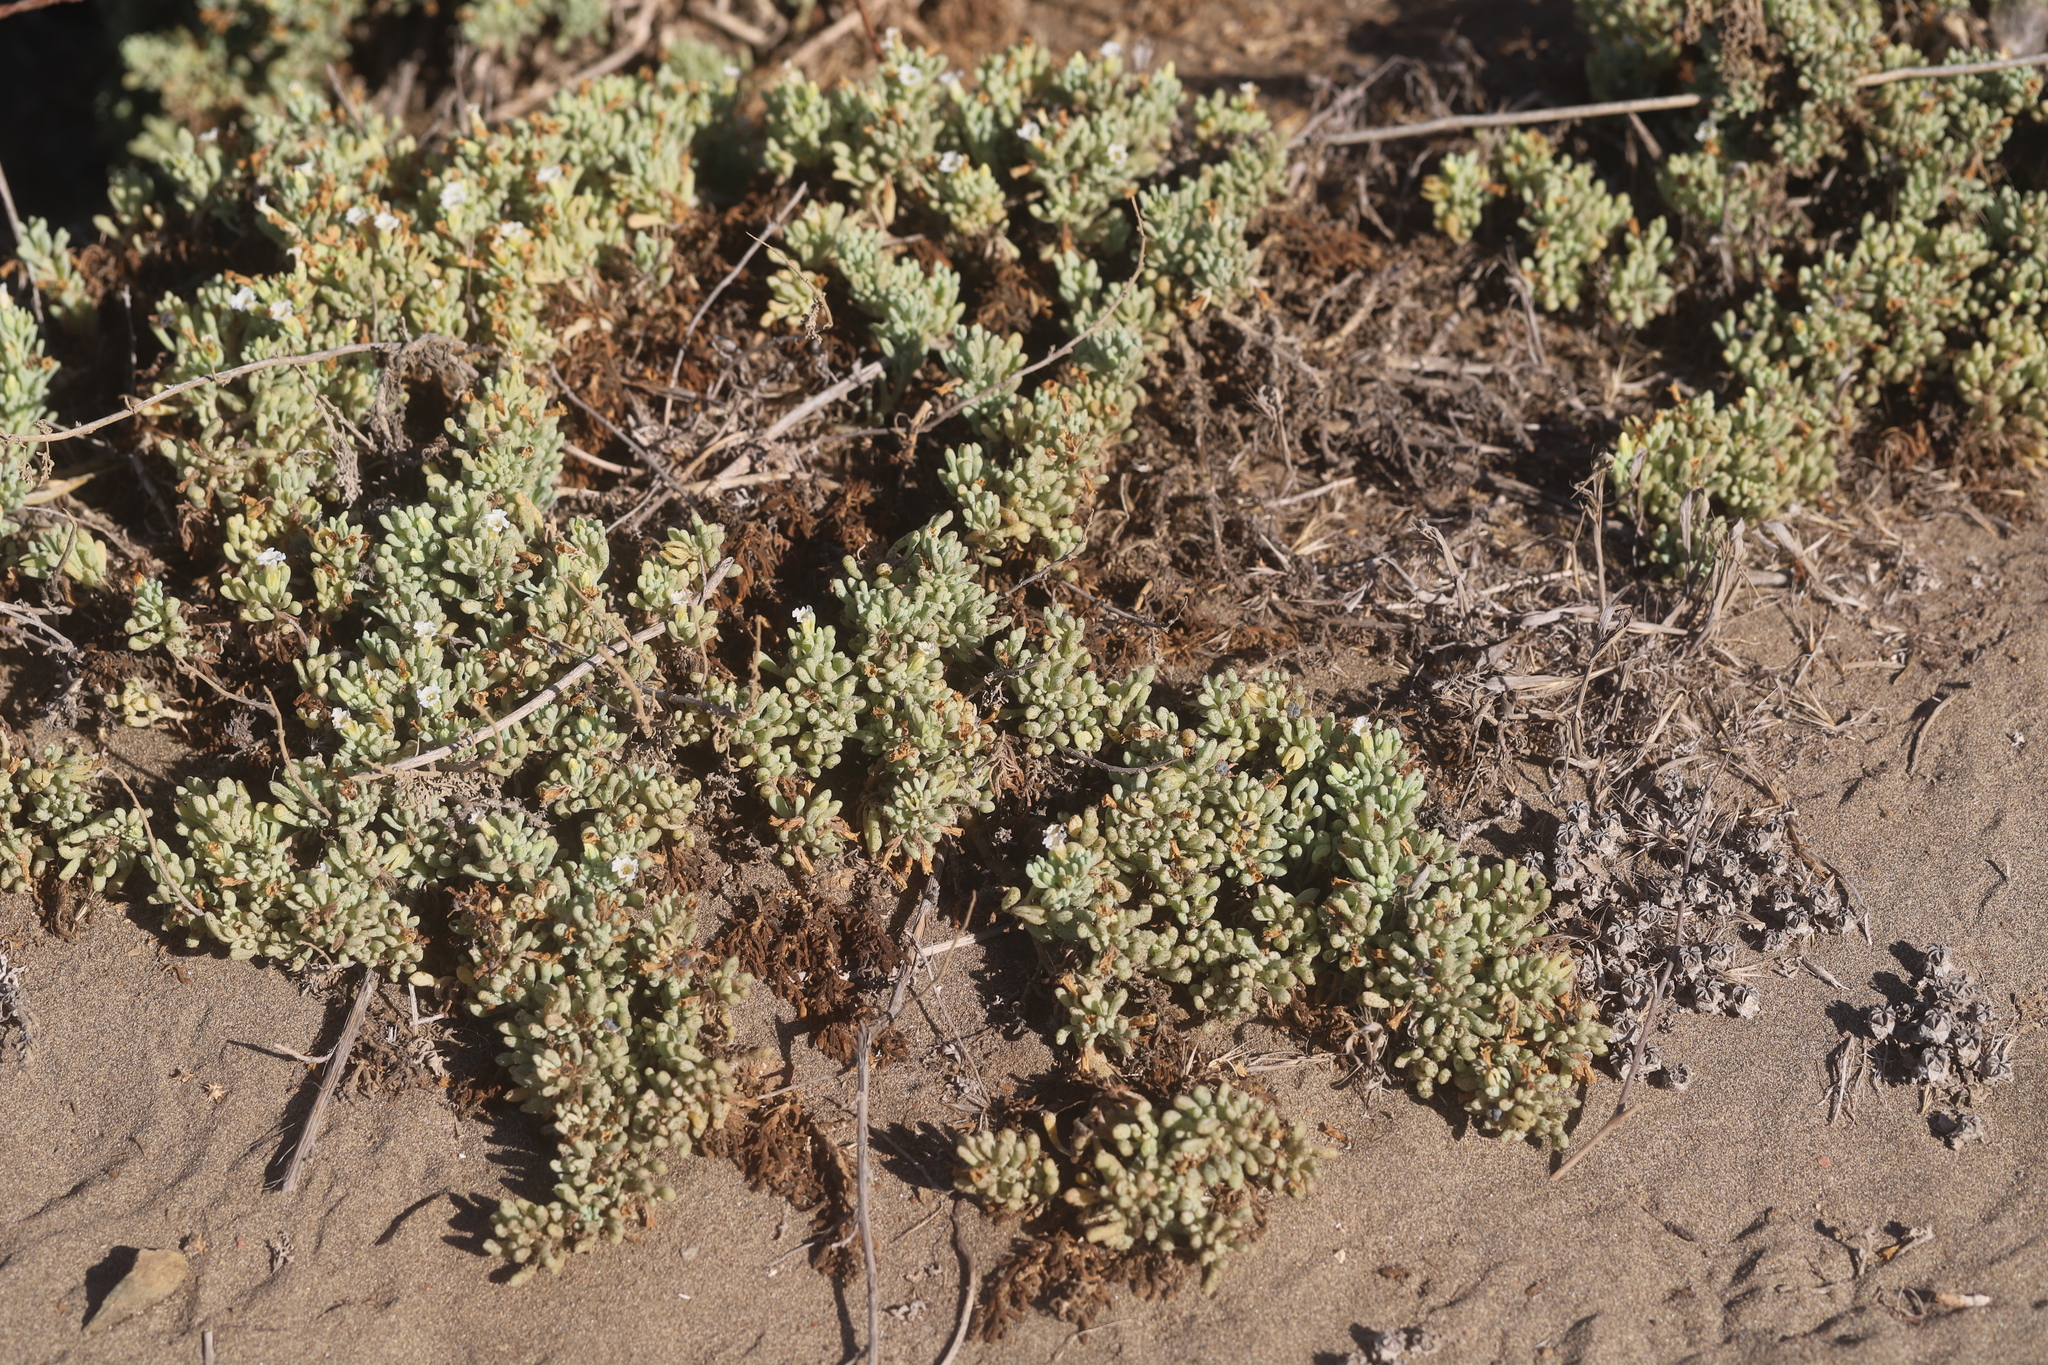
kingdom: Plantae
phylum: Tracheophyta
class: Magnoliopsida
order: Solanales
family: Solanaceae
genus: Nolana
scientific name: Nolana crassulifolia
